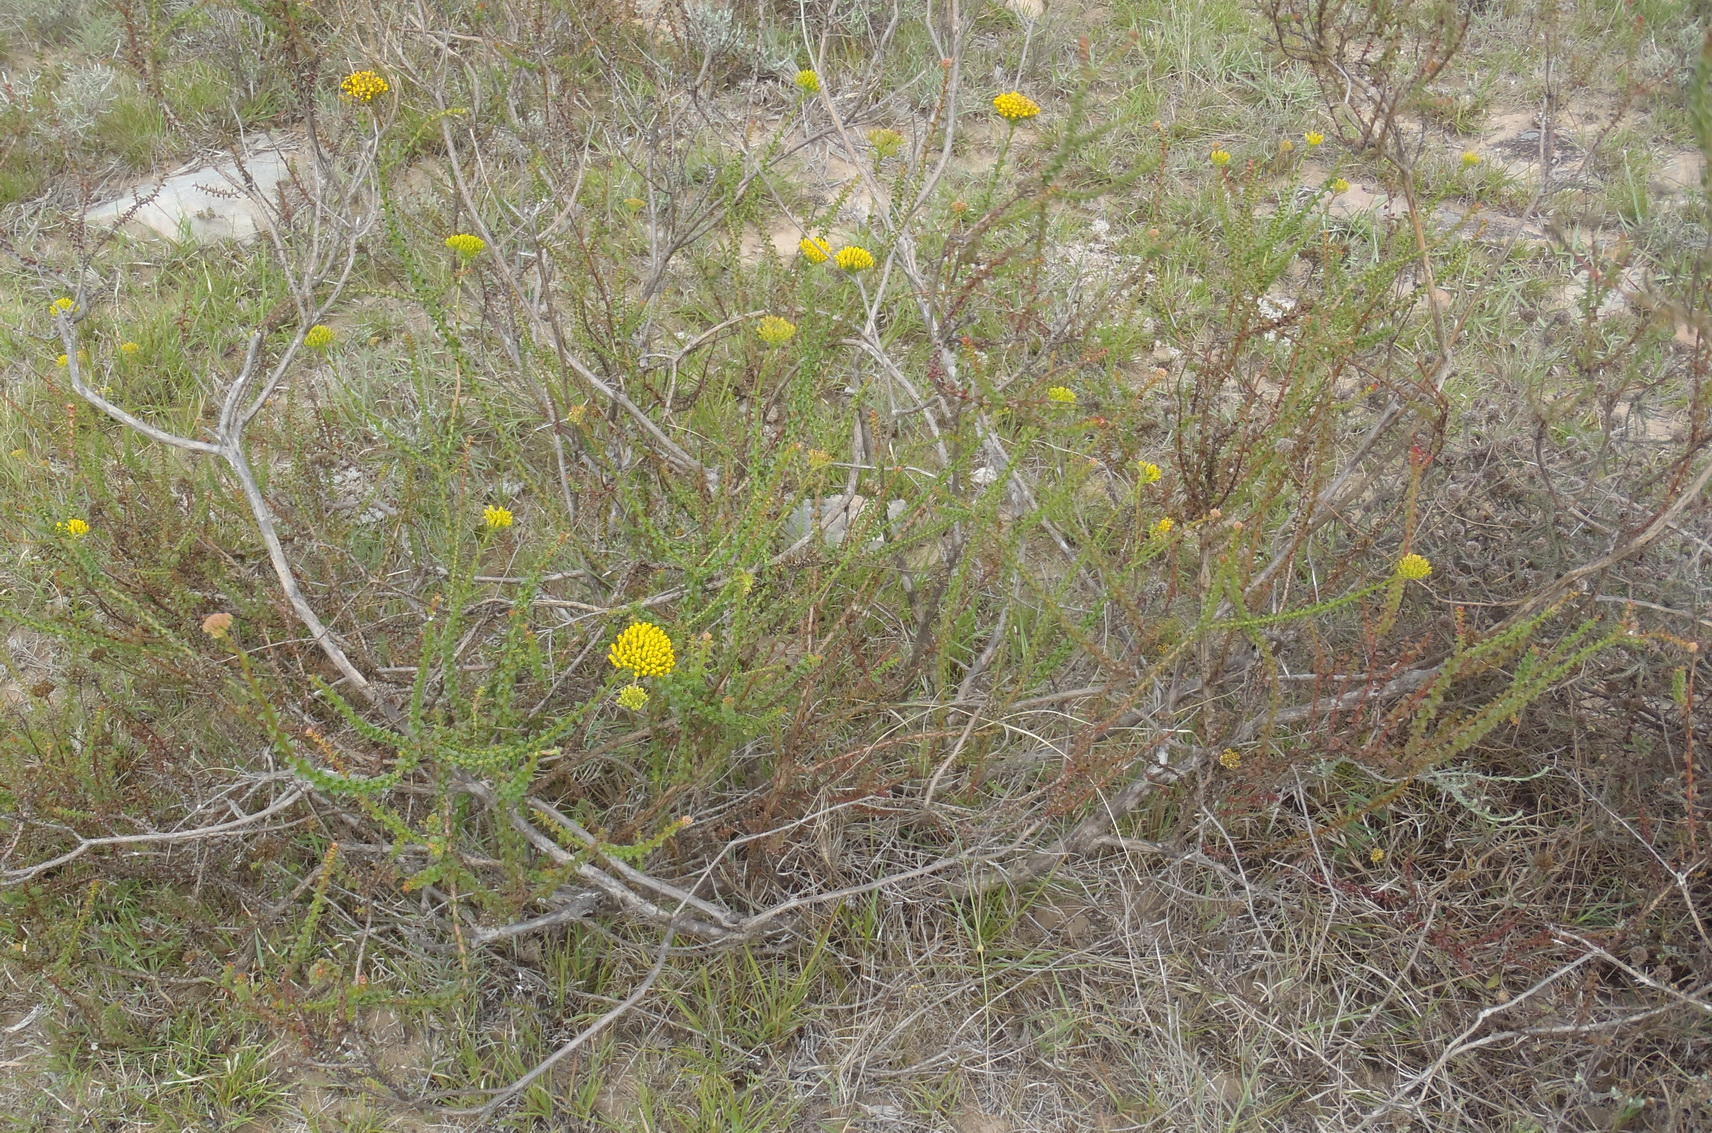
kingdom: Plantae
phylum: Tracheophyta
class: Magnoliopsida
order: Asterales
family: Asteraceae
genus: Athanasia
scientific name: Athanasia dentata
